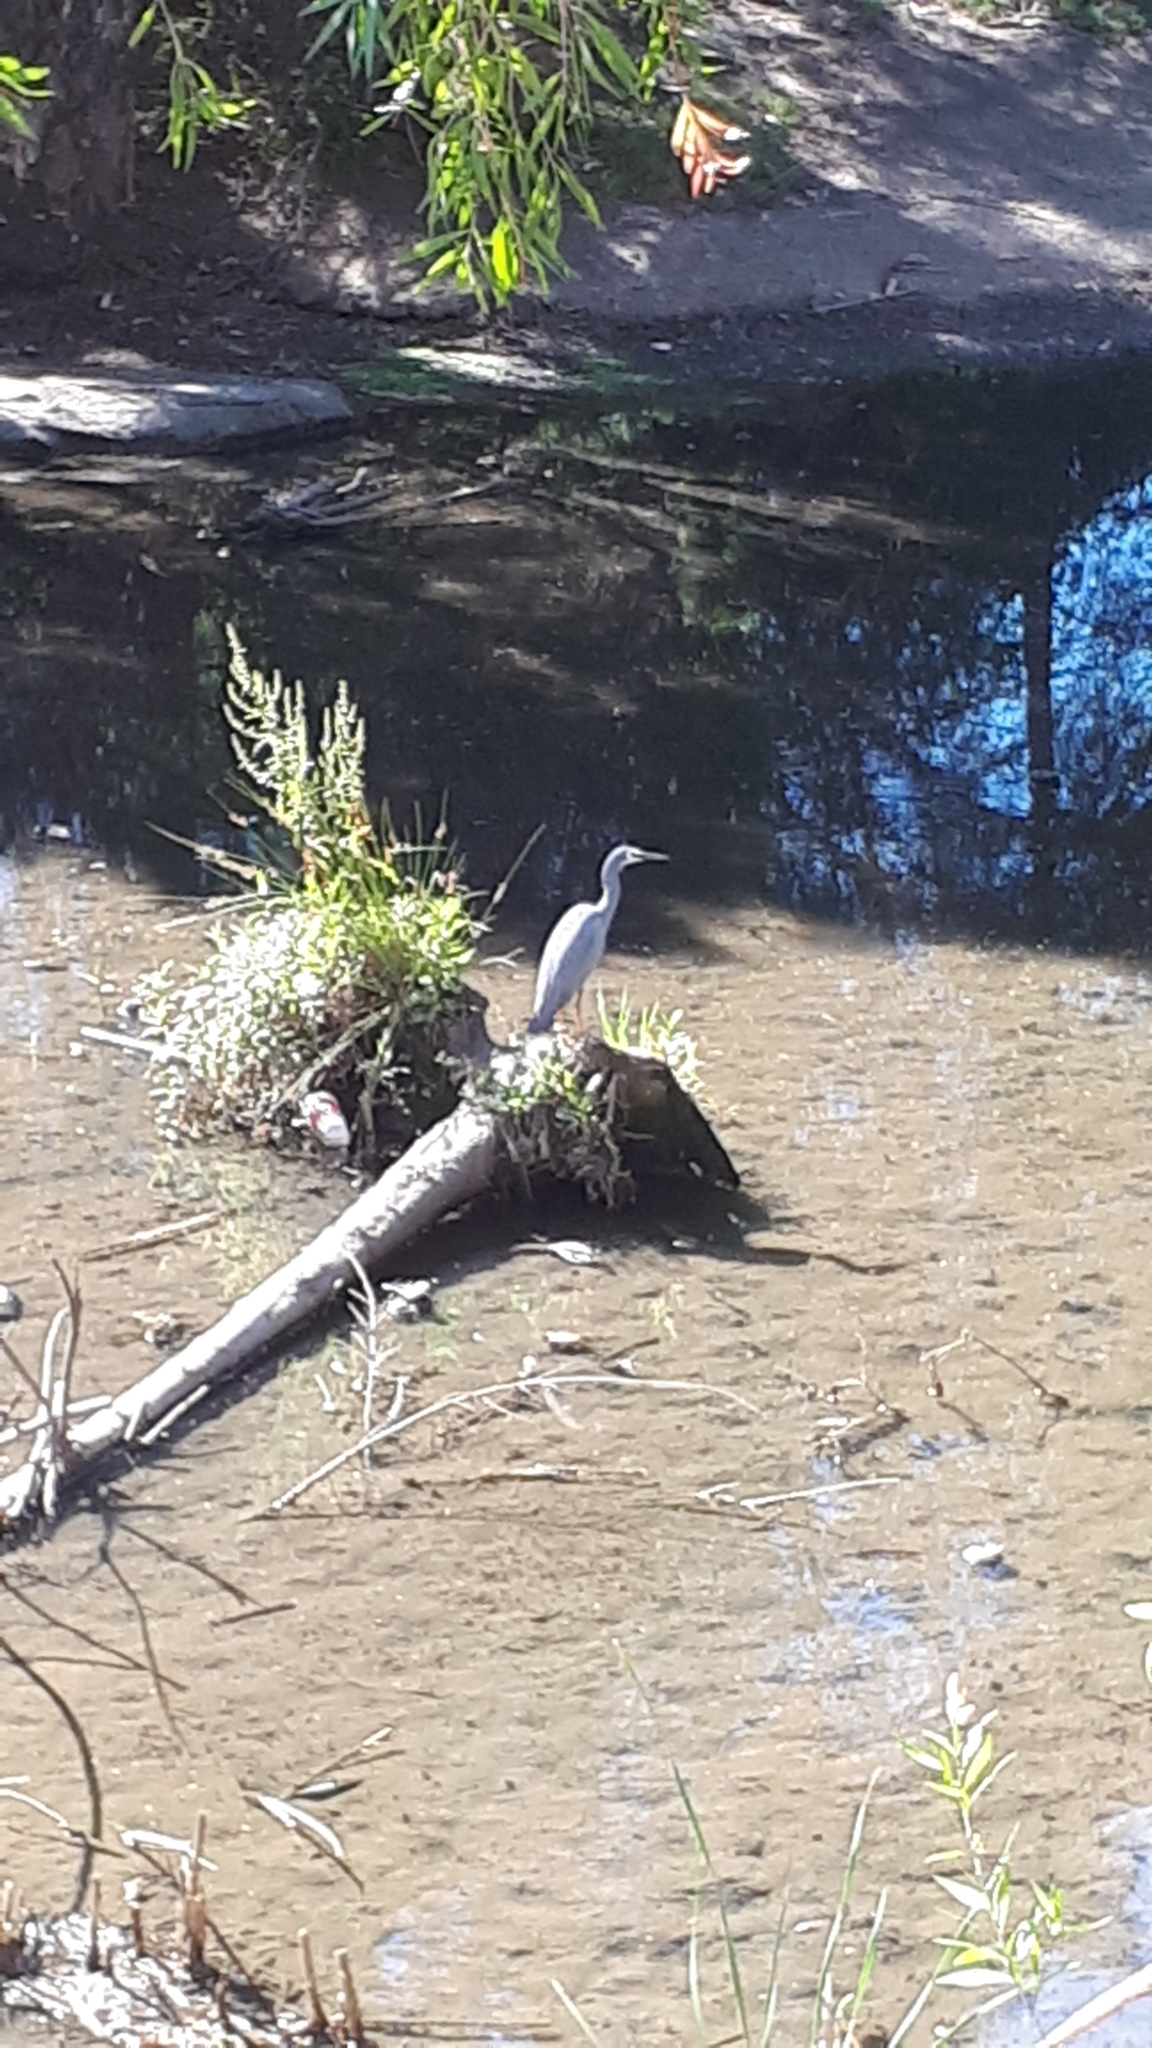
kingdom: Animalia
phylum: Chordata
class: Aves
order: Pelecaniformes
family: Ardeidae
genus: Egretta
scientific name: Egretta novaehollandiae
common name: White-faced heron
